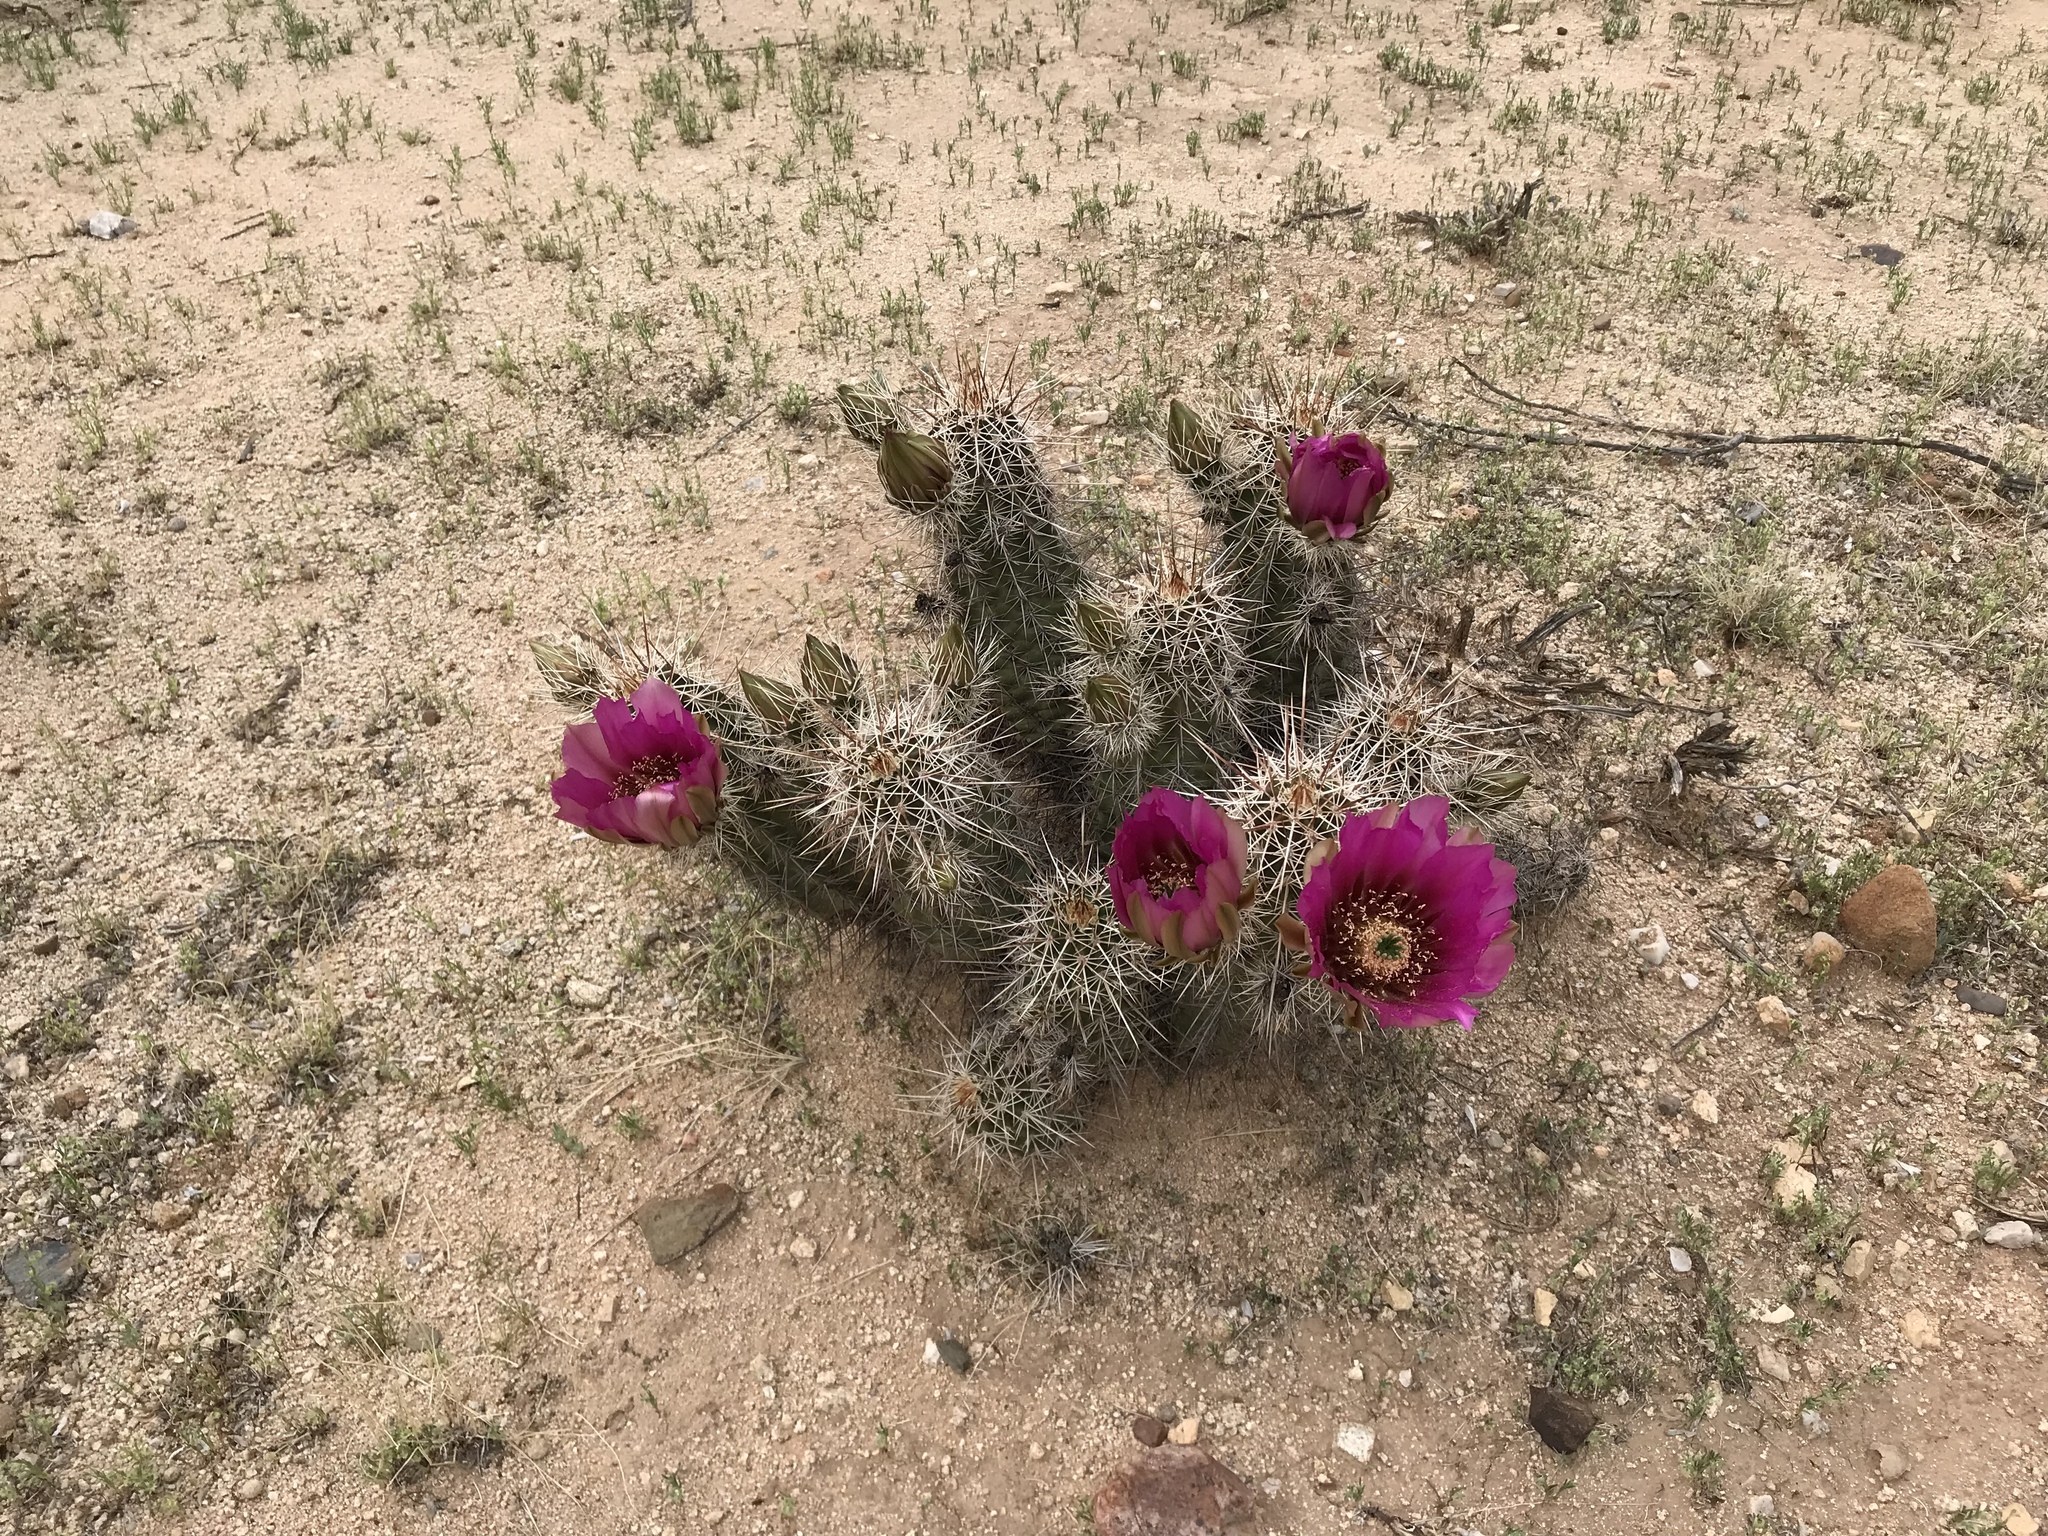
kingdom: Plantae
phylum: Tracheophyta
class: Magnoliopsida
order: Caryophyllales
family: Cactaceae
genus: Echinocereus
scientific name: Echinocereus fasciculatus
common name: Bundle hedgehog
